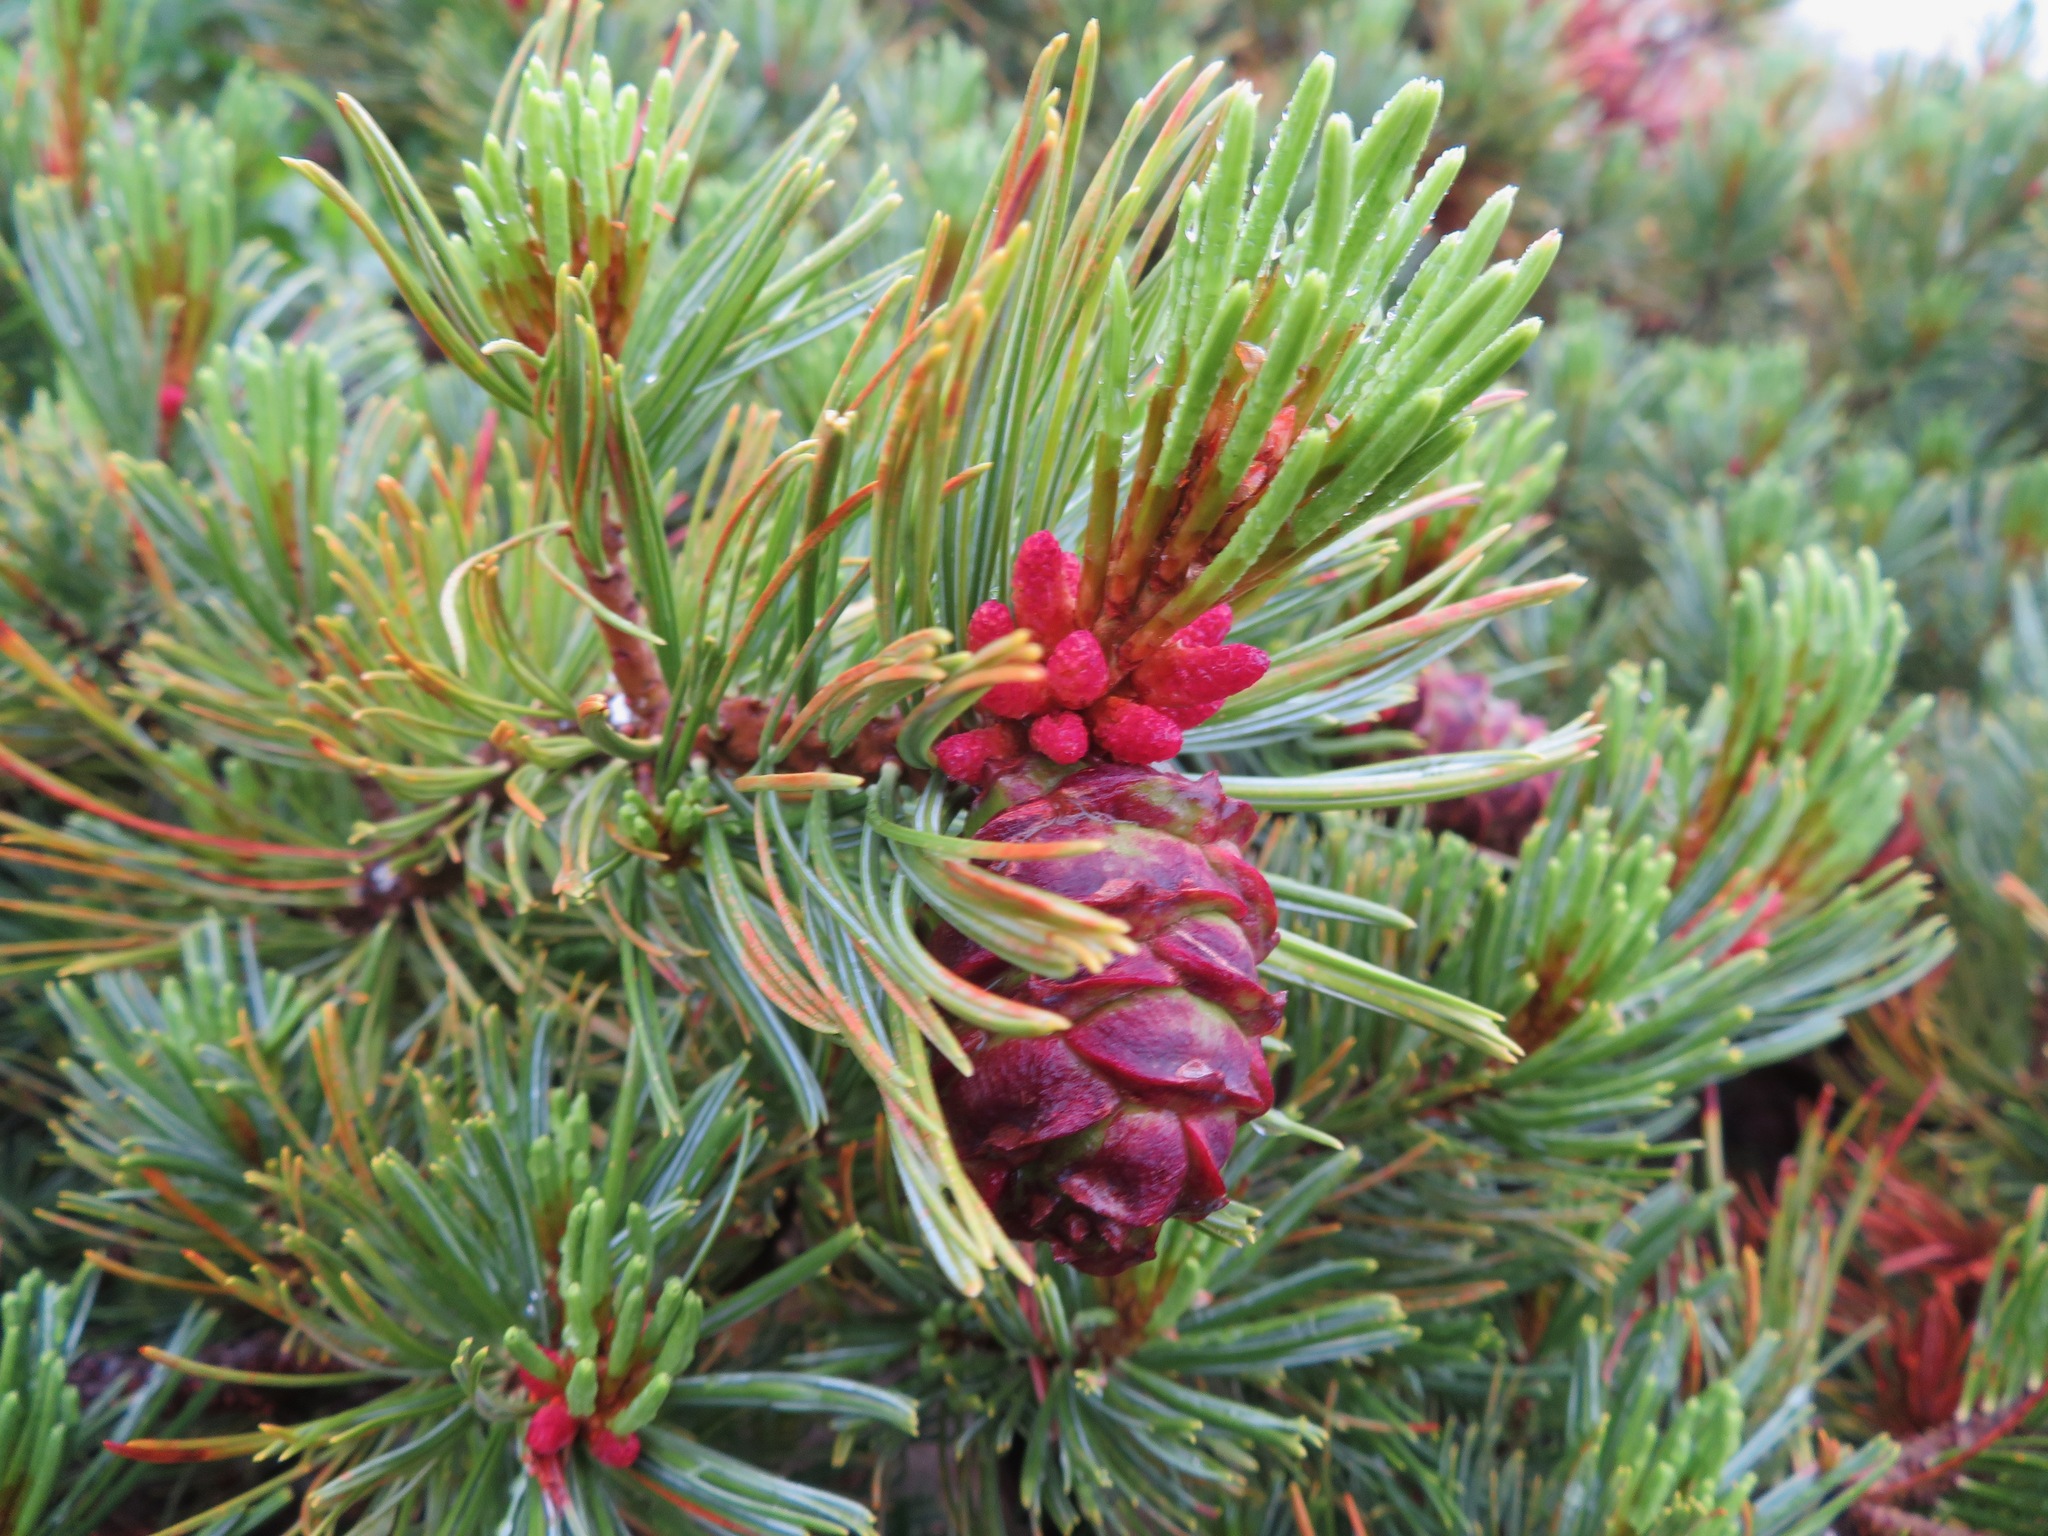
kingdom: Plantae
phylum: Tracheophyta
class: Pinopsida
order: Pinales
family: Pinaceae
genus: Pinus
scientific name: Pinus pumila
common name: Dwarf siberian pine
